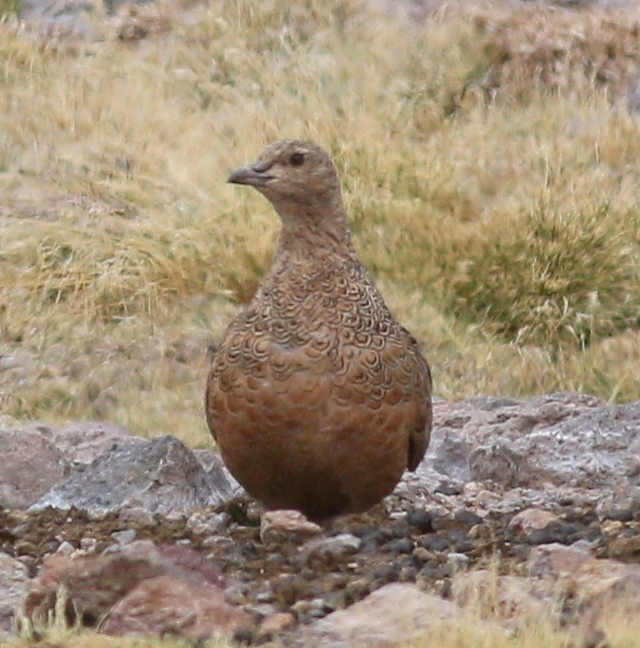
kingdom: Animalia
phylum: Chordata
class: Aves
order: Charadriiformes
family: Thinocoridae
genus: Attagis
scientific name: Attagis gayi
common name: Rufous-bellied seedsnipe
